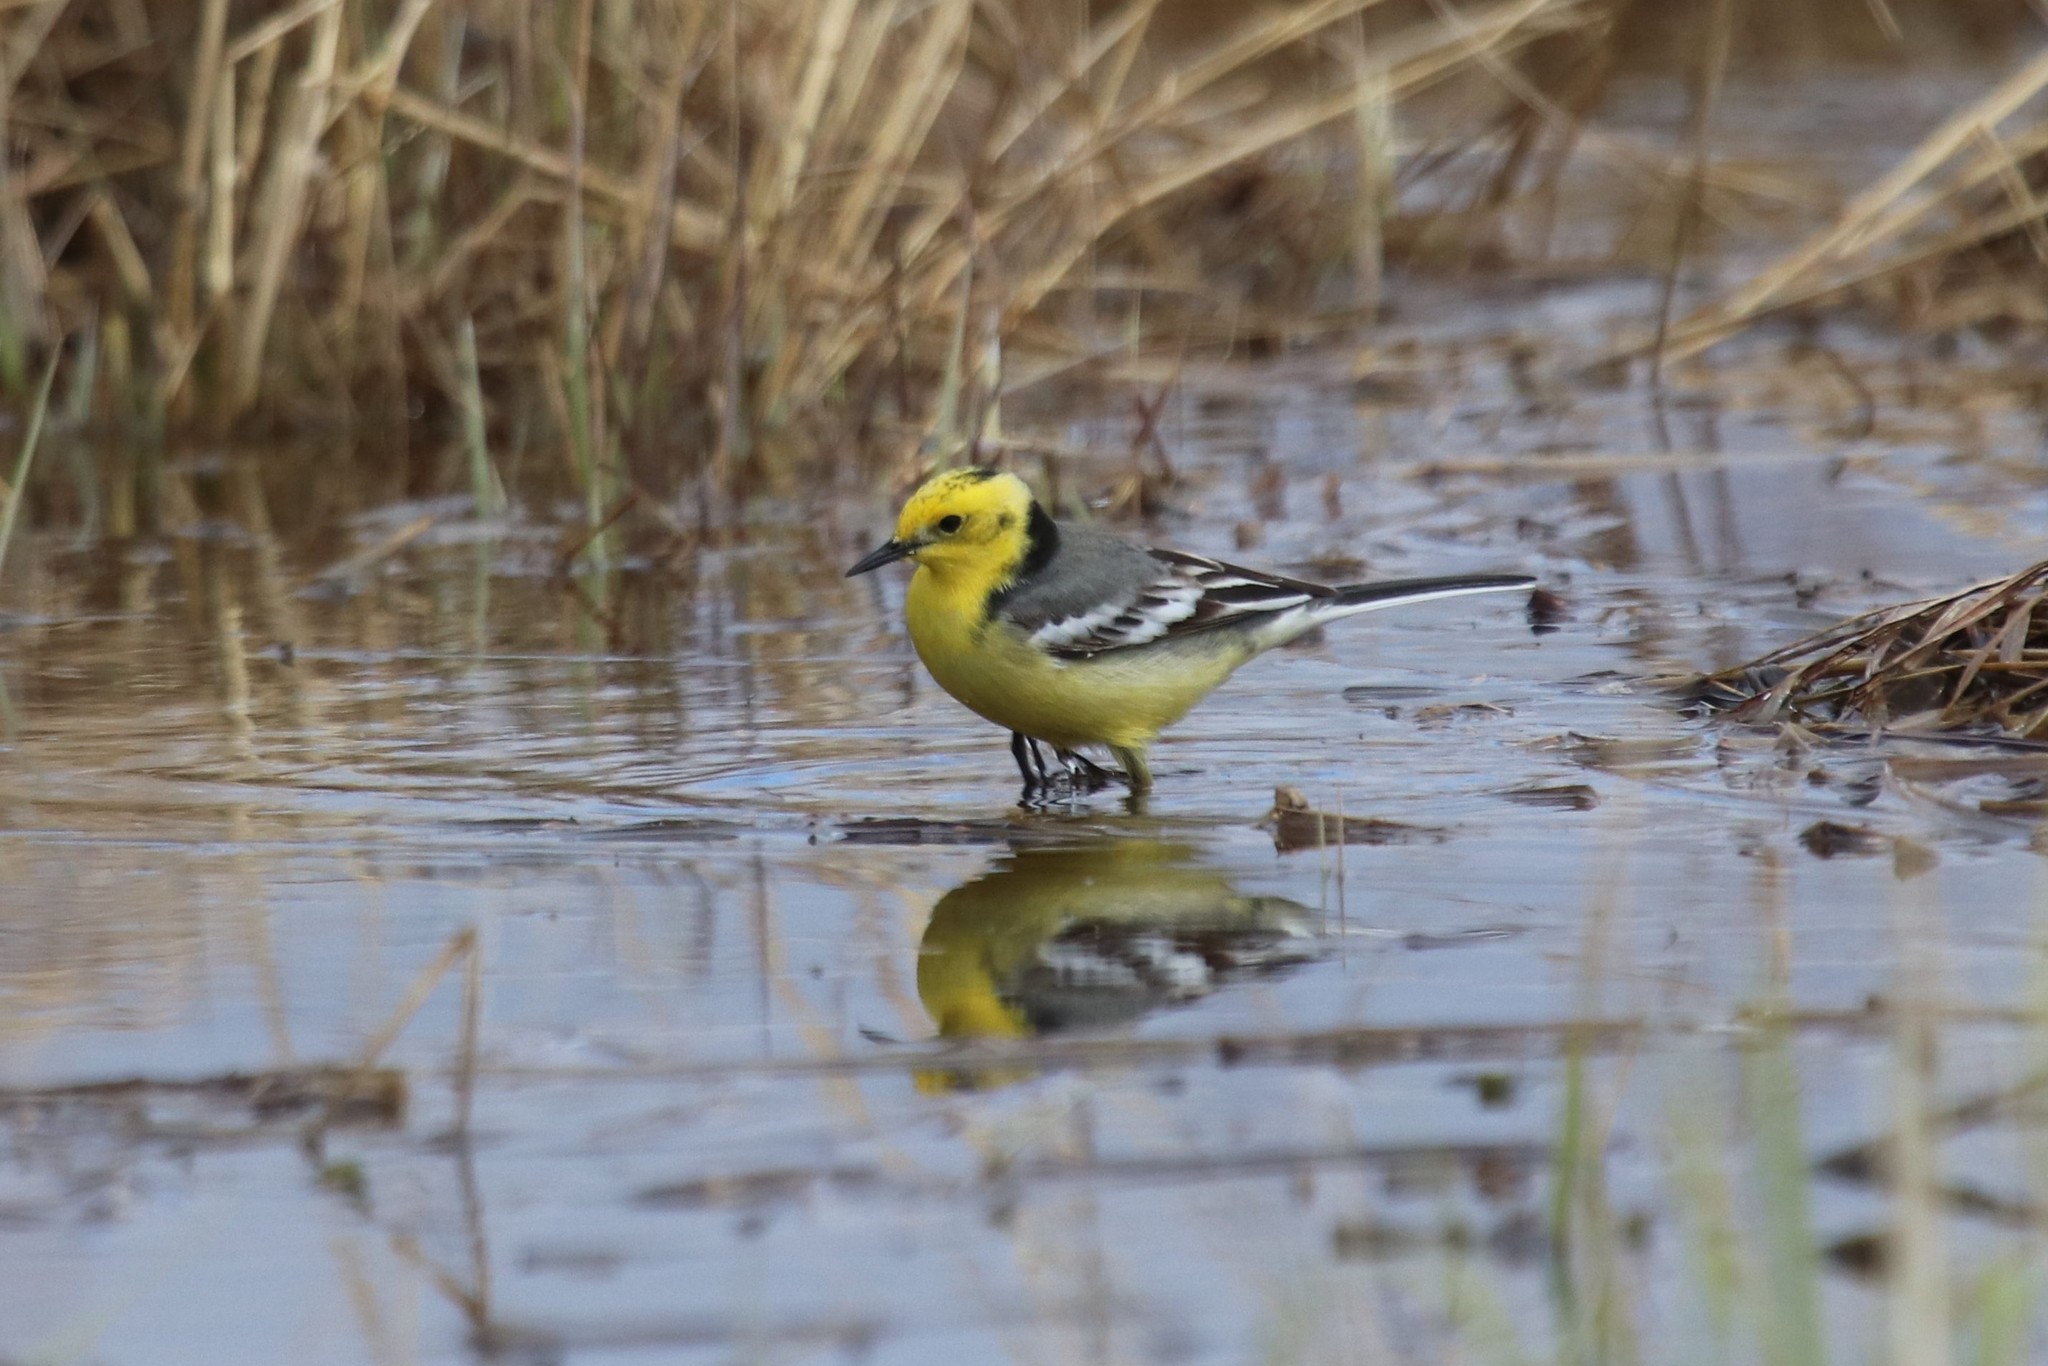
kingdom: Animalia
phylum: Chordata
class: Aves
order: Passeriformes
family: Motacillidae
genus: Motacilla
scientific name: Motacilla citreola
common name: Citrine wagtail
